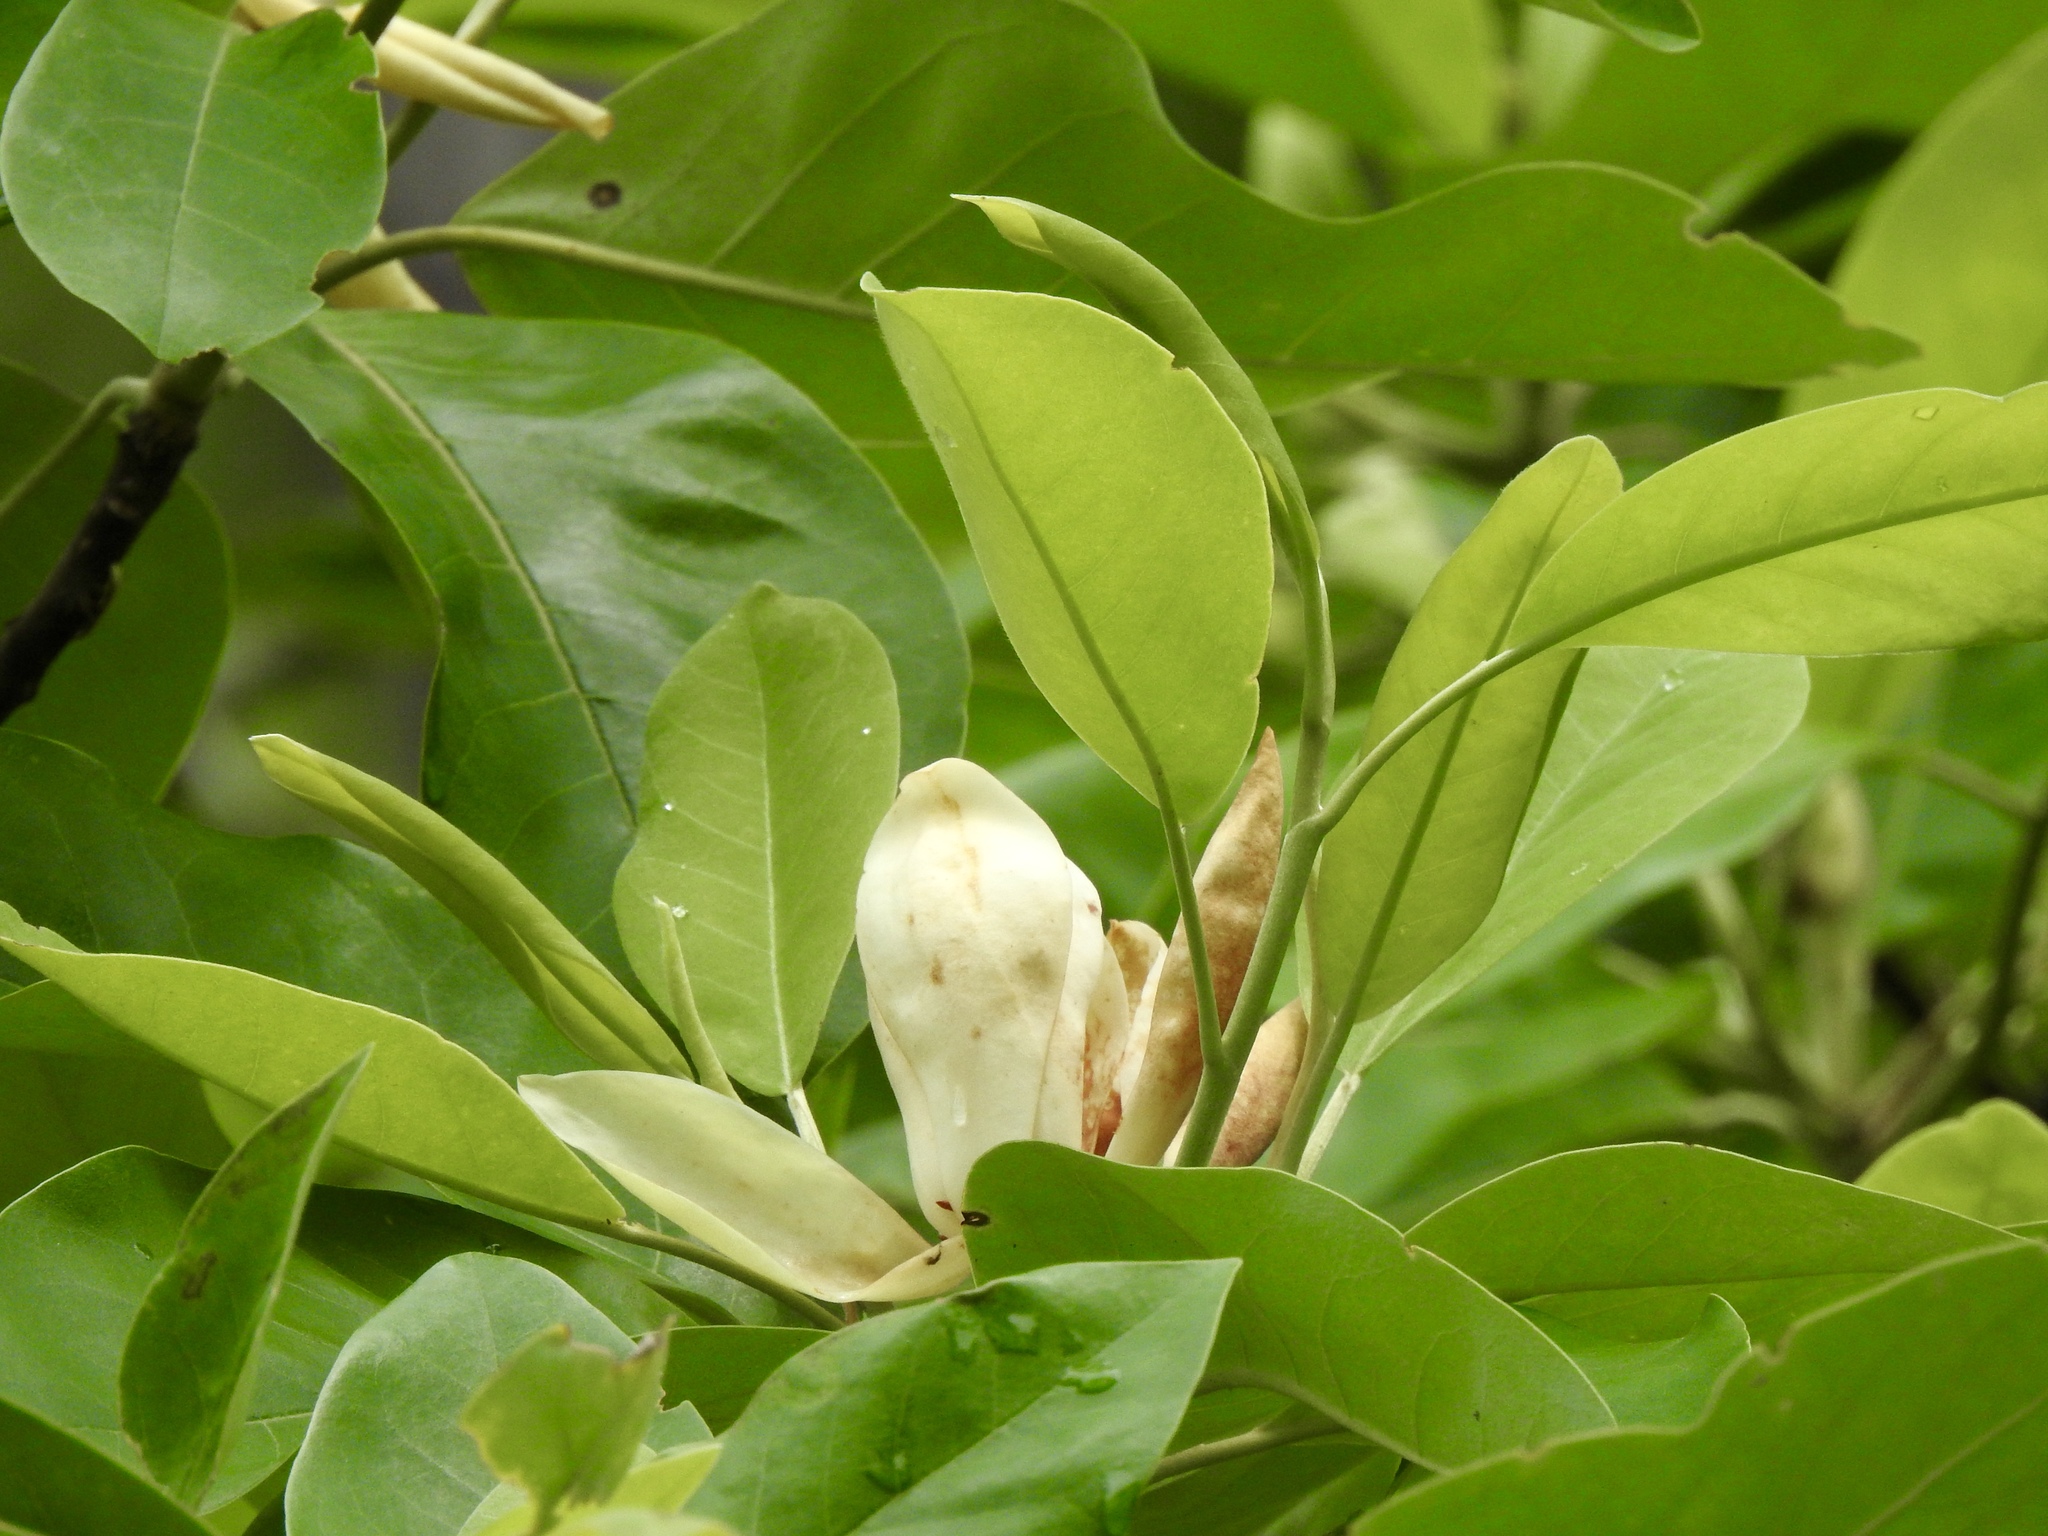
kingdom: Plantae
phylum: Tracheophyta
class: Magnoliopsida
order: Magnoliales
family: Magnoliaceae
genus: Magnolia
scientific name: Magnolia virginiana
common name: Swamp bay
